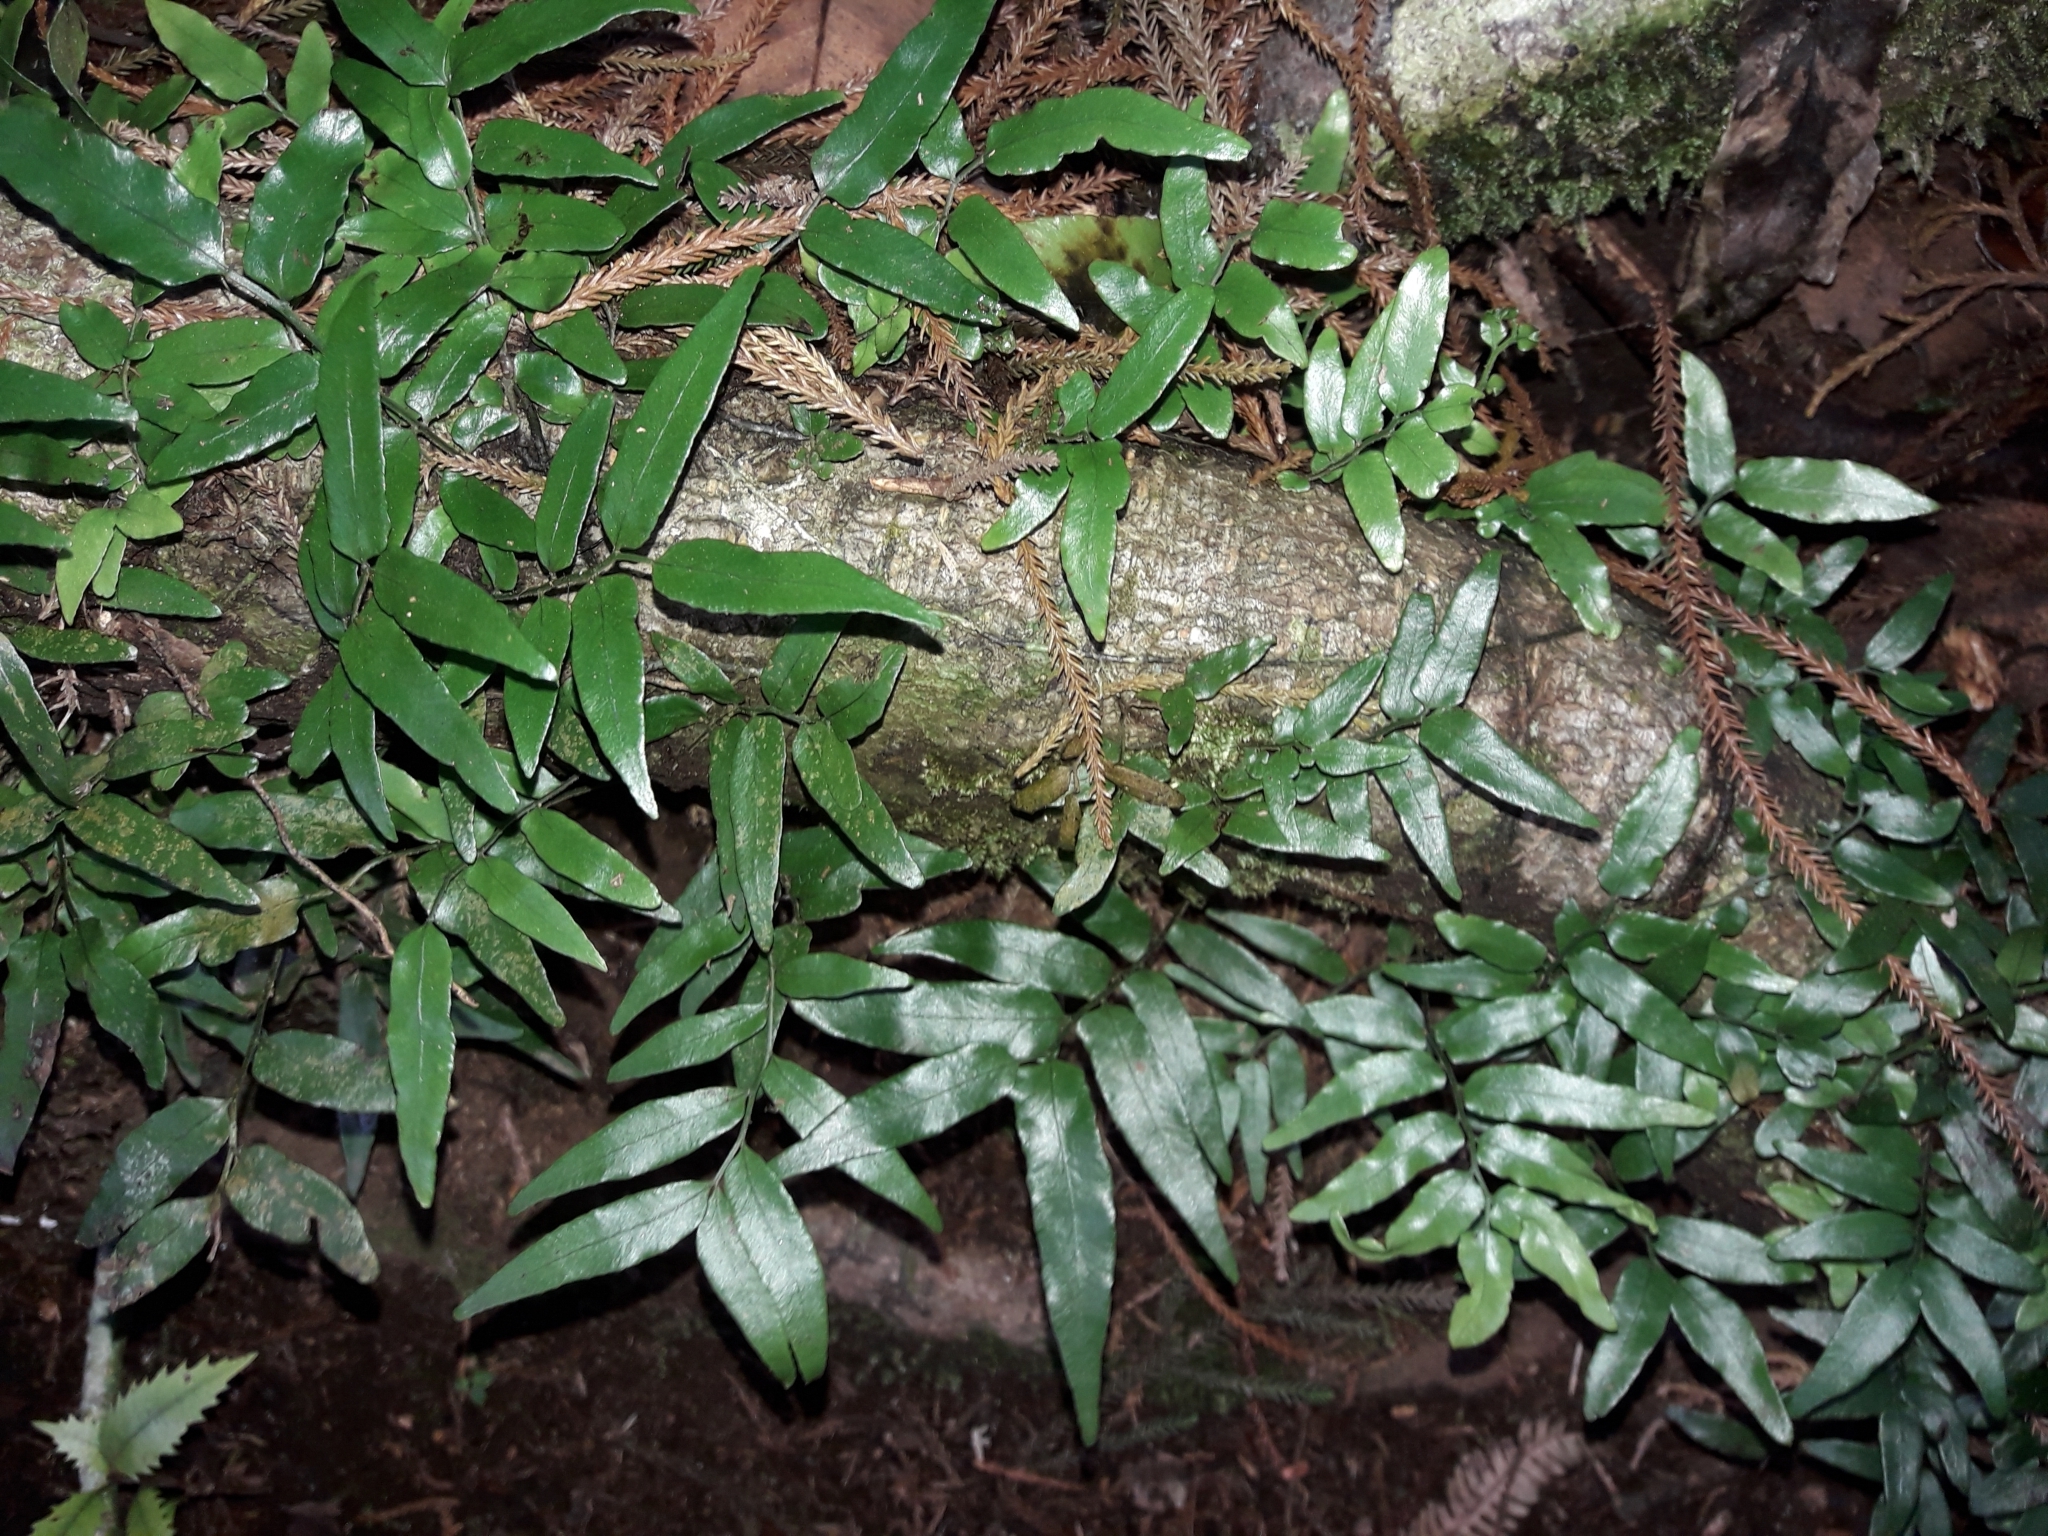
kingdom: Plantae
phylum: Tracheophyta
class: Polypodiopsida
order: Polypodiales
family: Tectariaceae
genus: Arthropteris
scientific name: Arthropteris tenella
